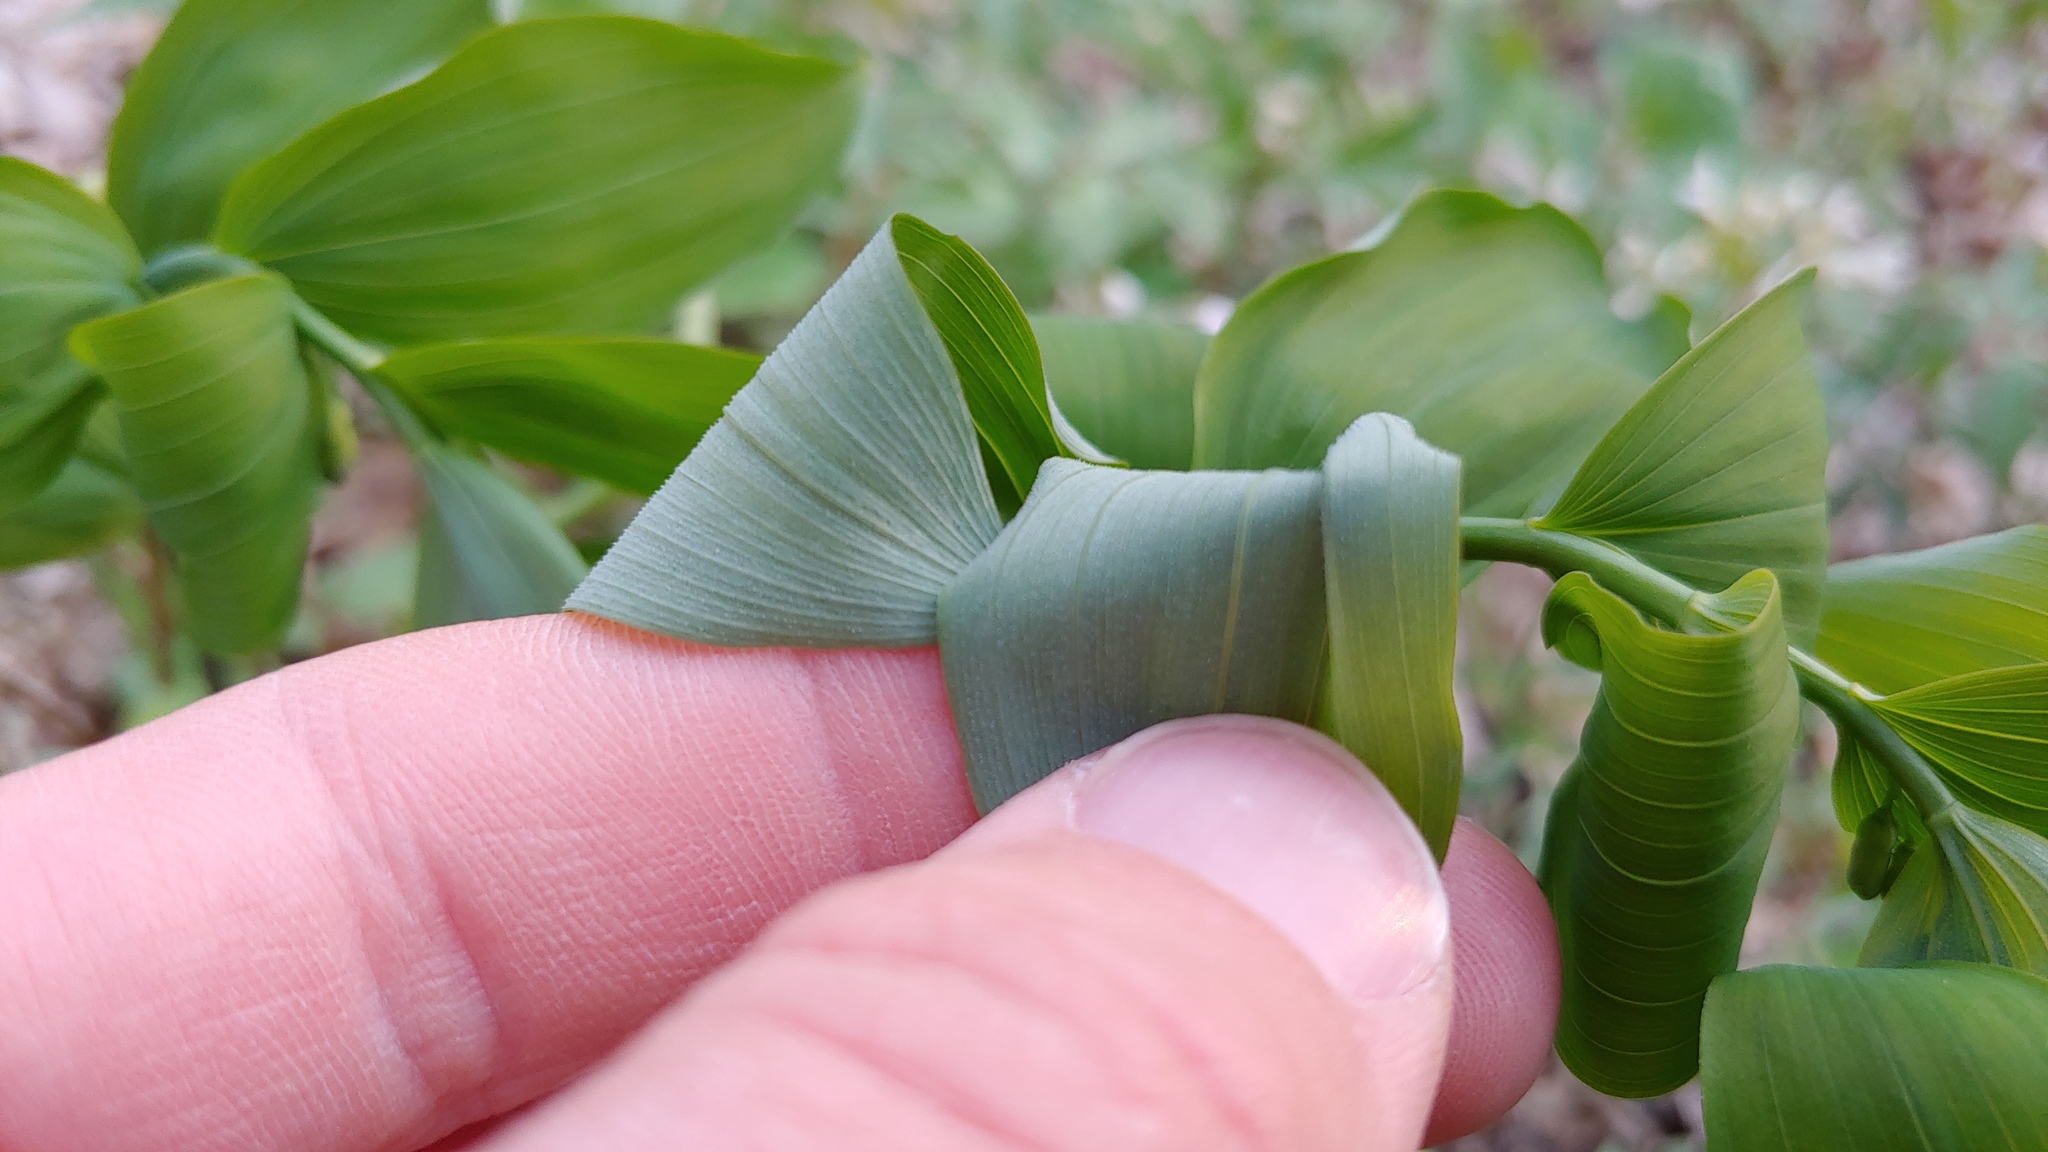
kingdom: Plantae
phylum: Tracheophyta
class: Liliopsida
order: Asparagales
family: Asparagaceae
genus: Polygonatum
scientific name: Polygonatum pubescens
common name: Downy solomon's seal
